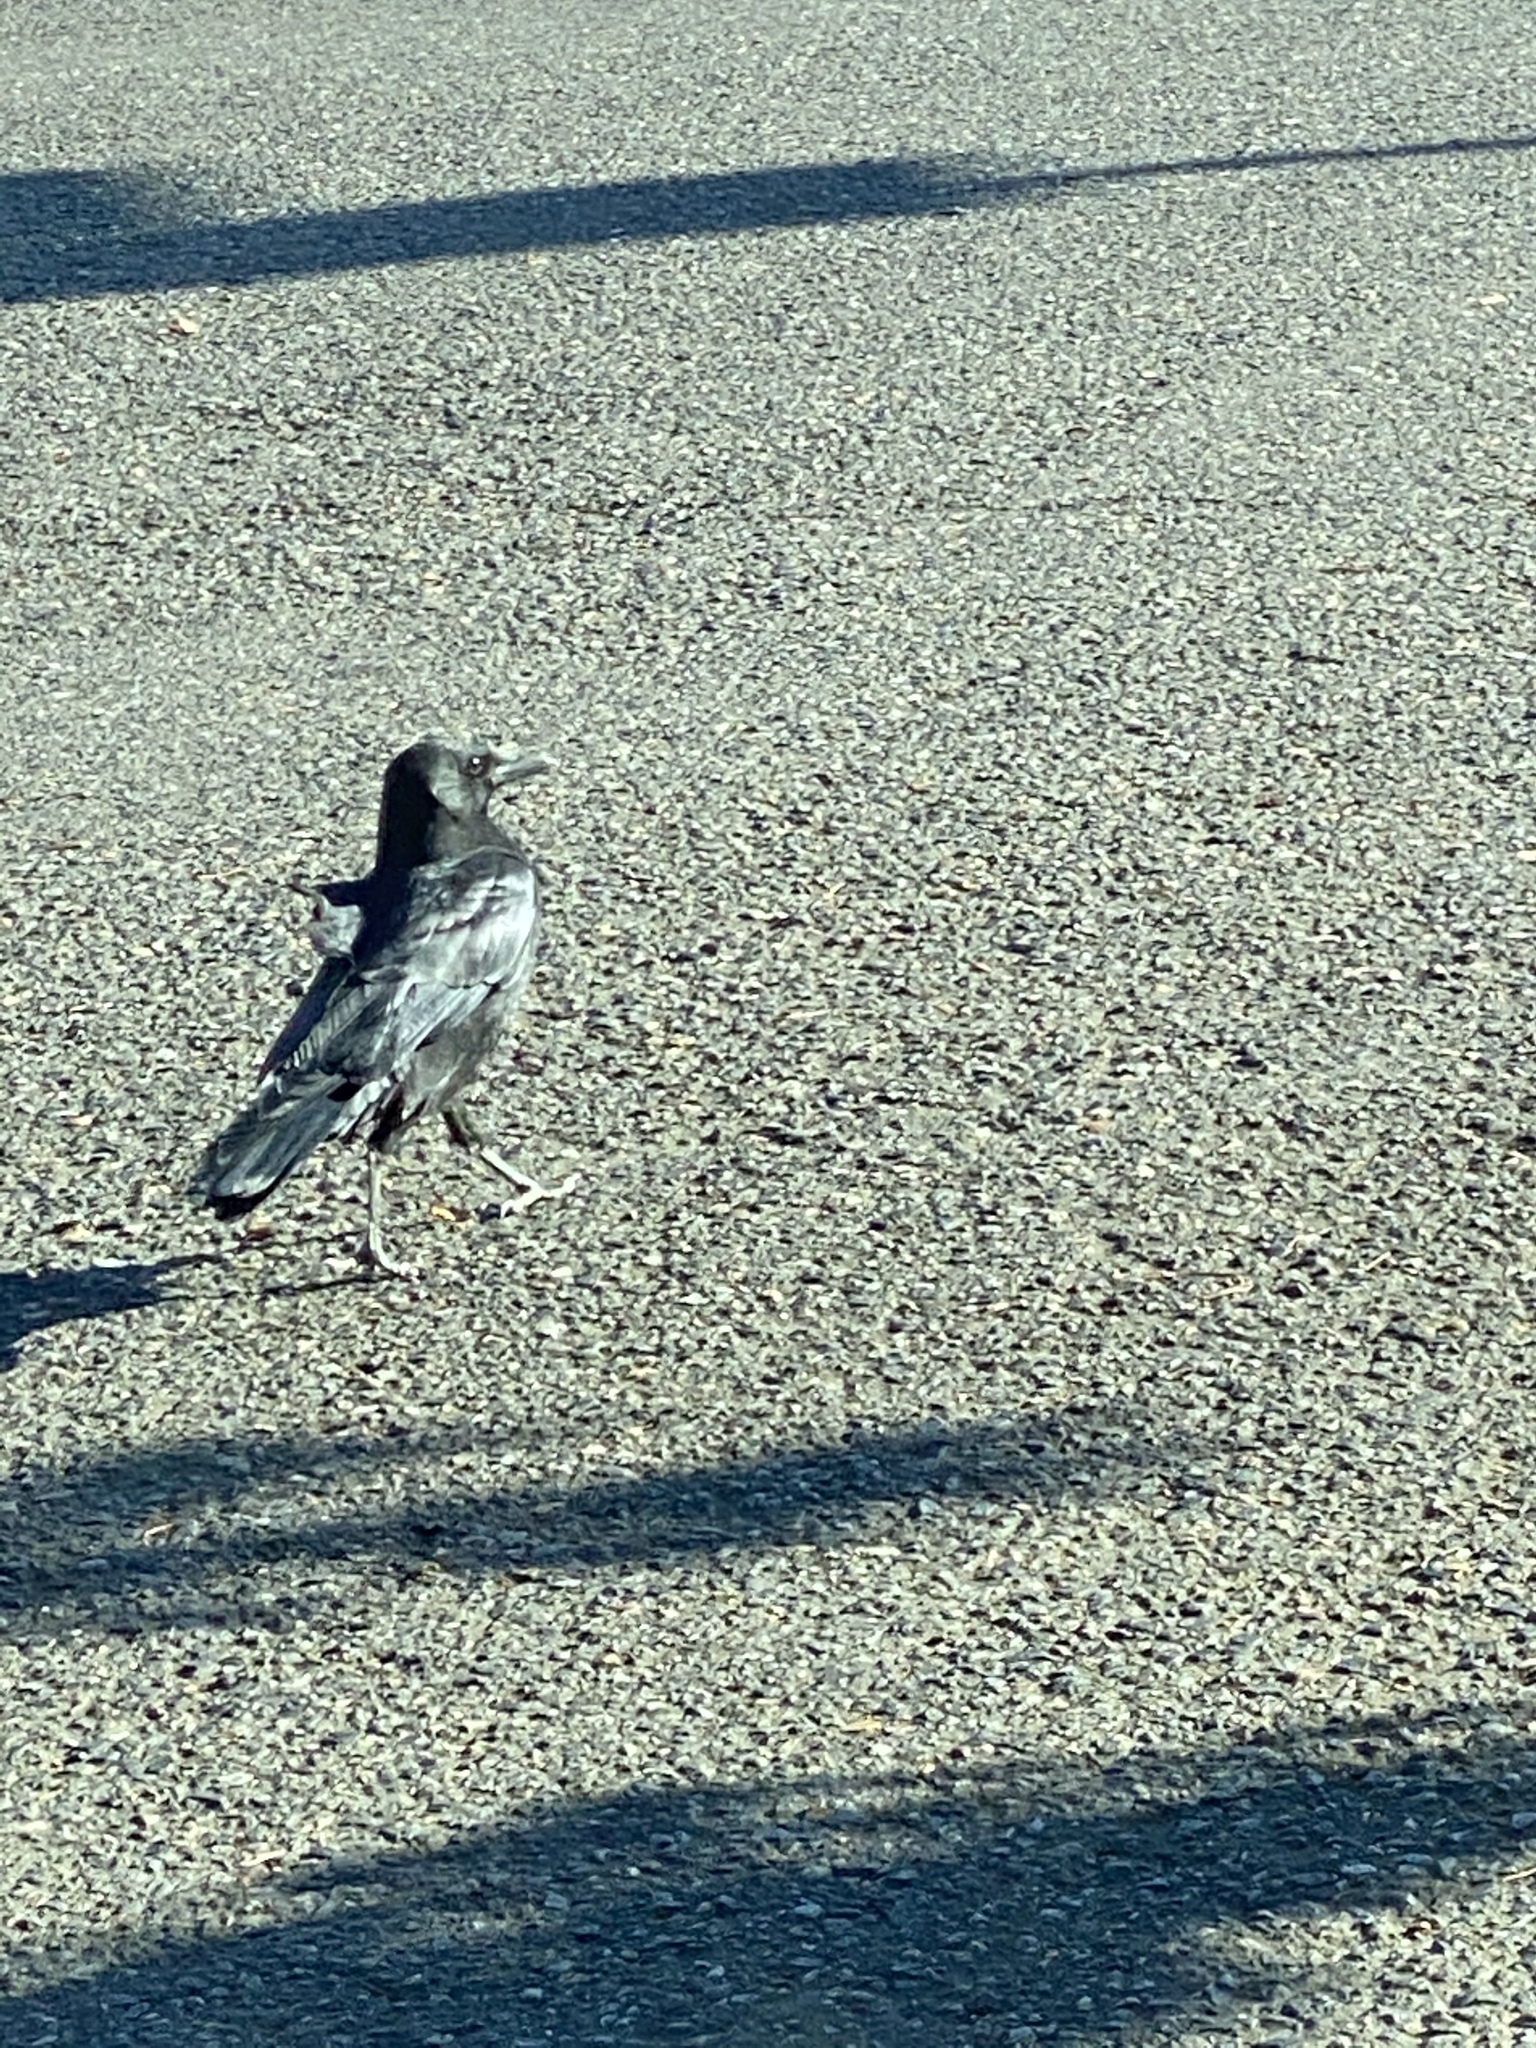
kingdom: Animalia
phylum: Chordata
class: Aves
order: Passeriformes
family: Corvidae
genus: Corvus
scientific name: Corvus brachyrhynchos
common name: American crow
